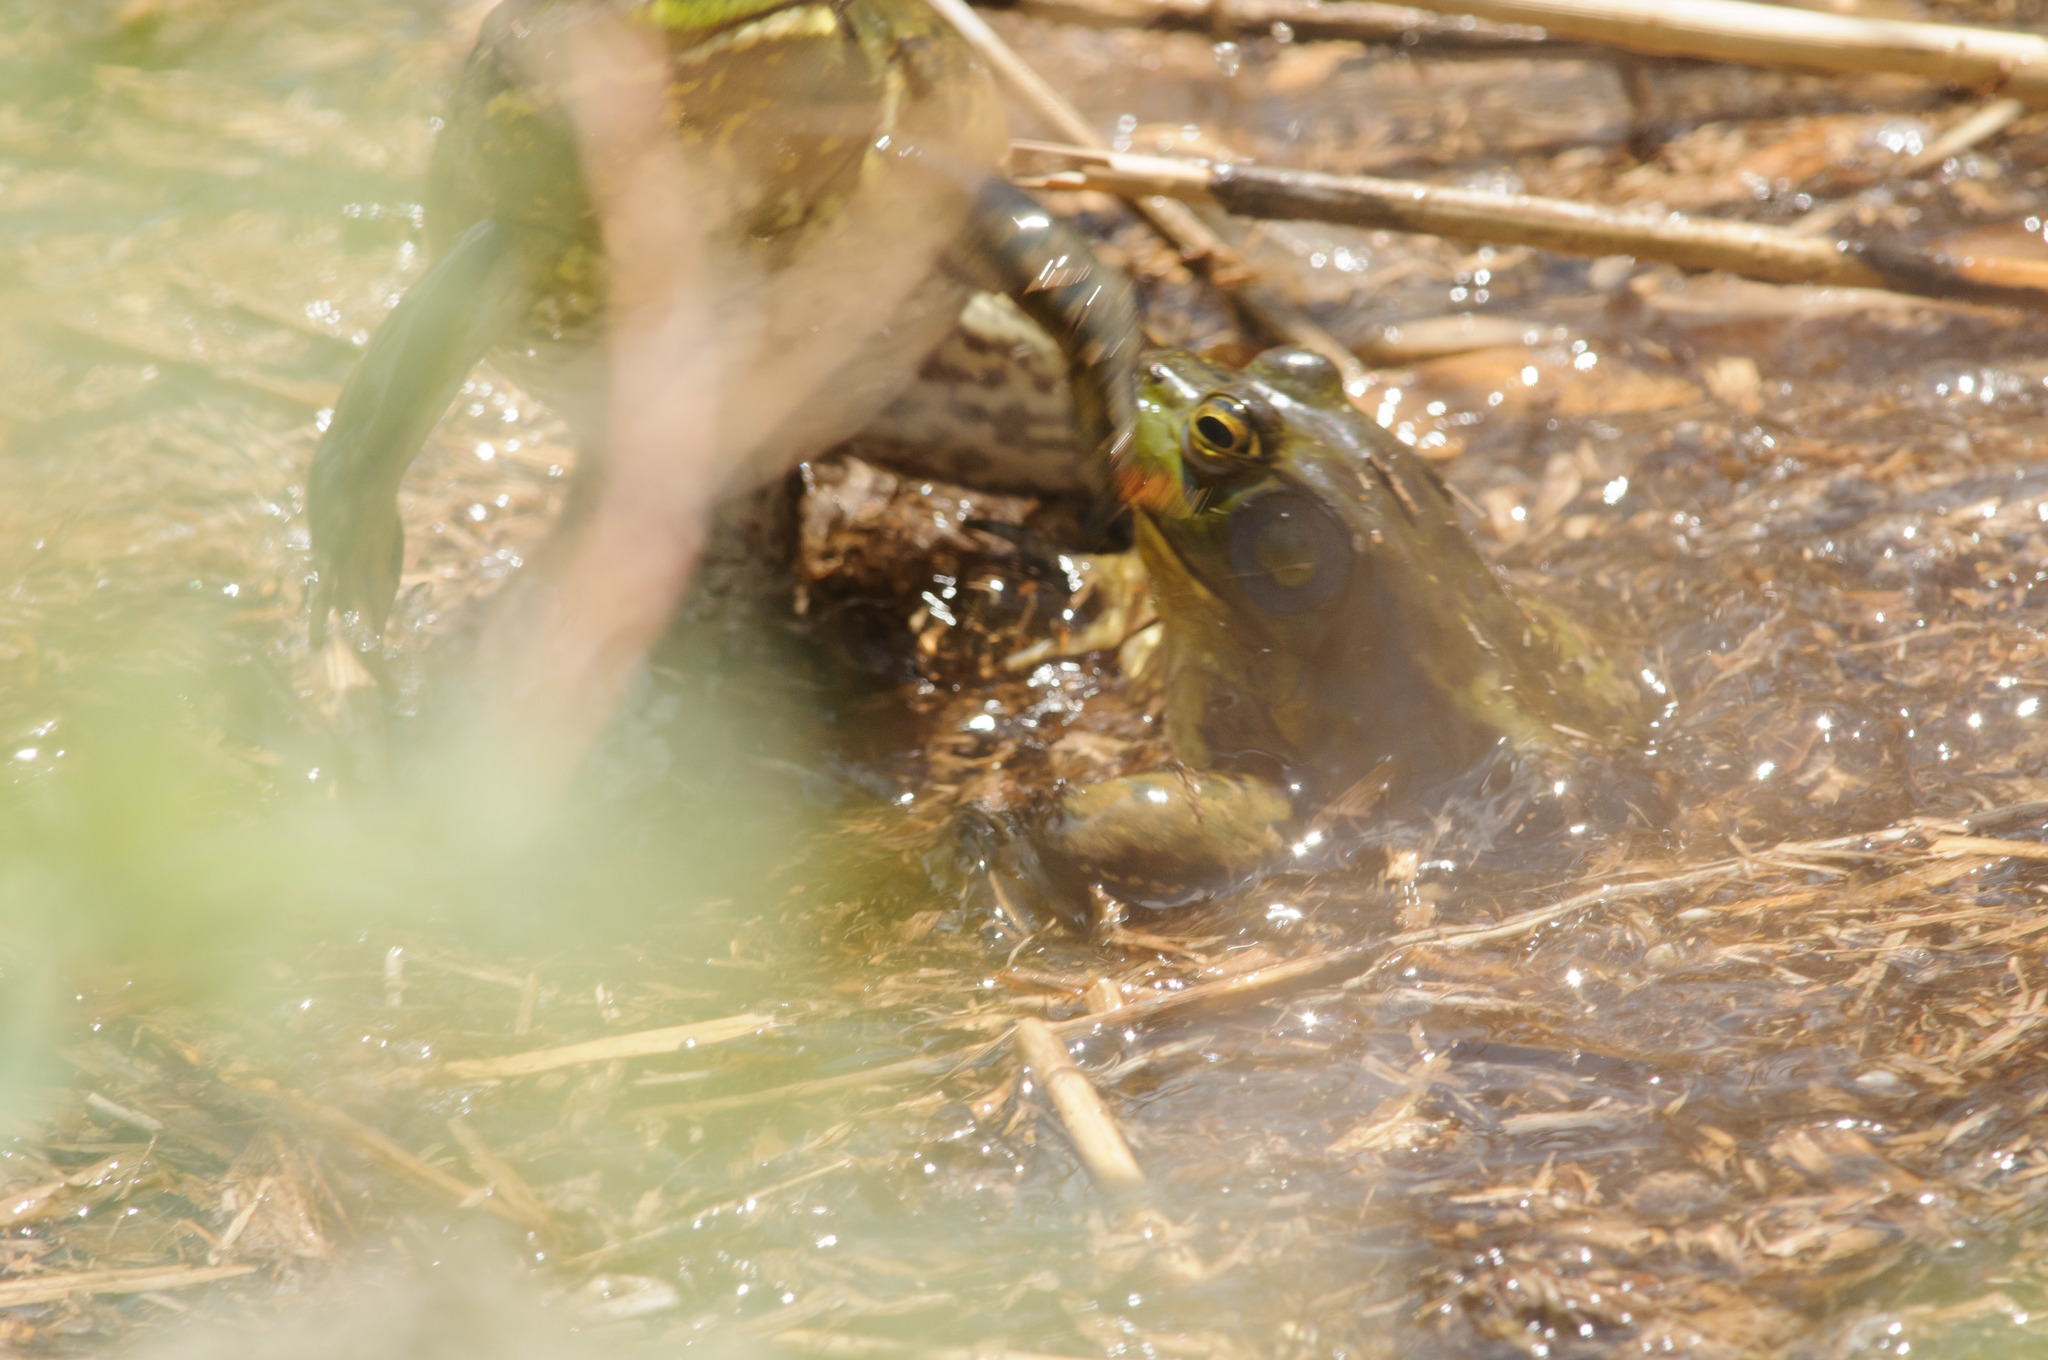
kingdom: Animalia
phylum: Chordata
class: Amphibia
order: Anura
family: Ranidae
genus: Lithobates
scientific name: Lithobates catesbeianus
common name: American bullfrog
